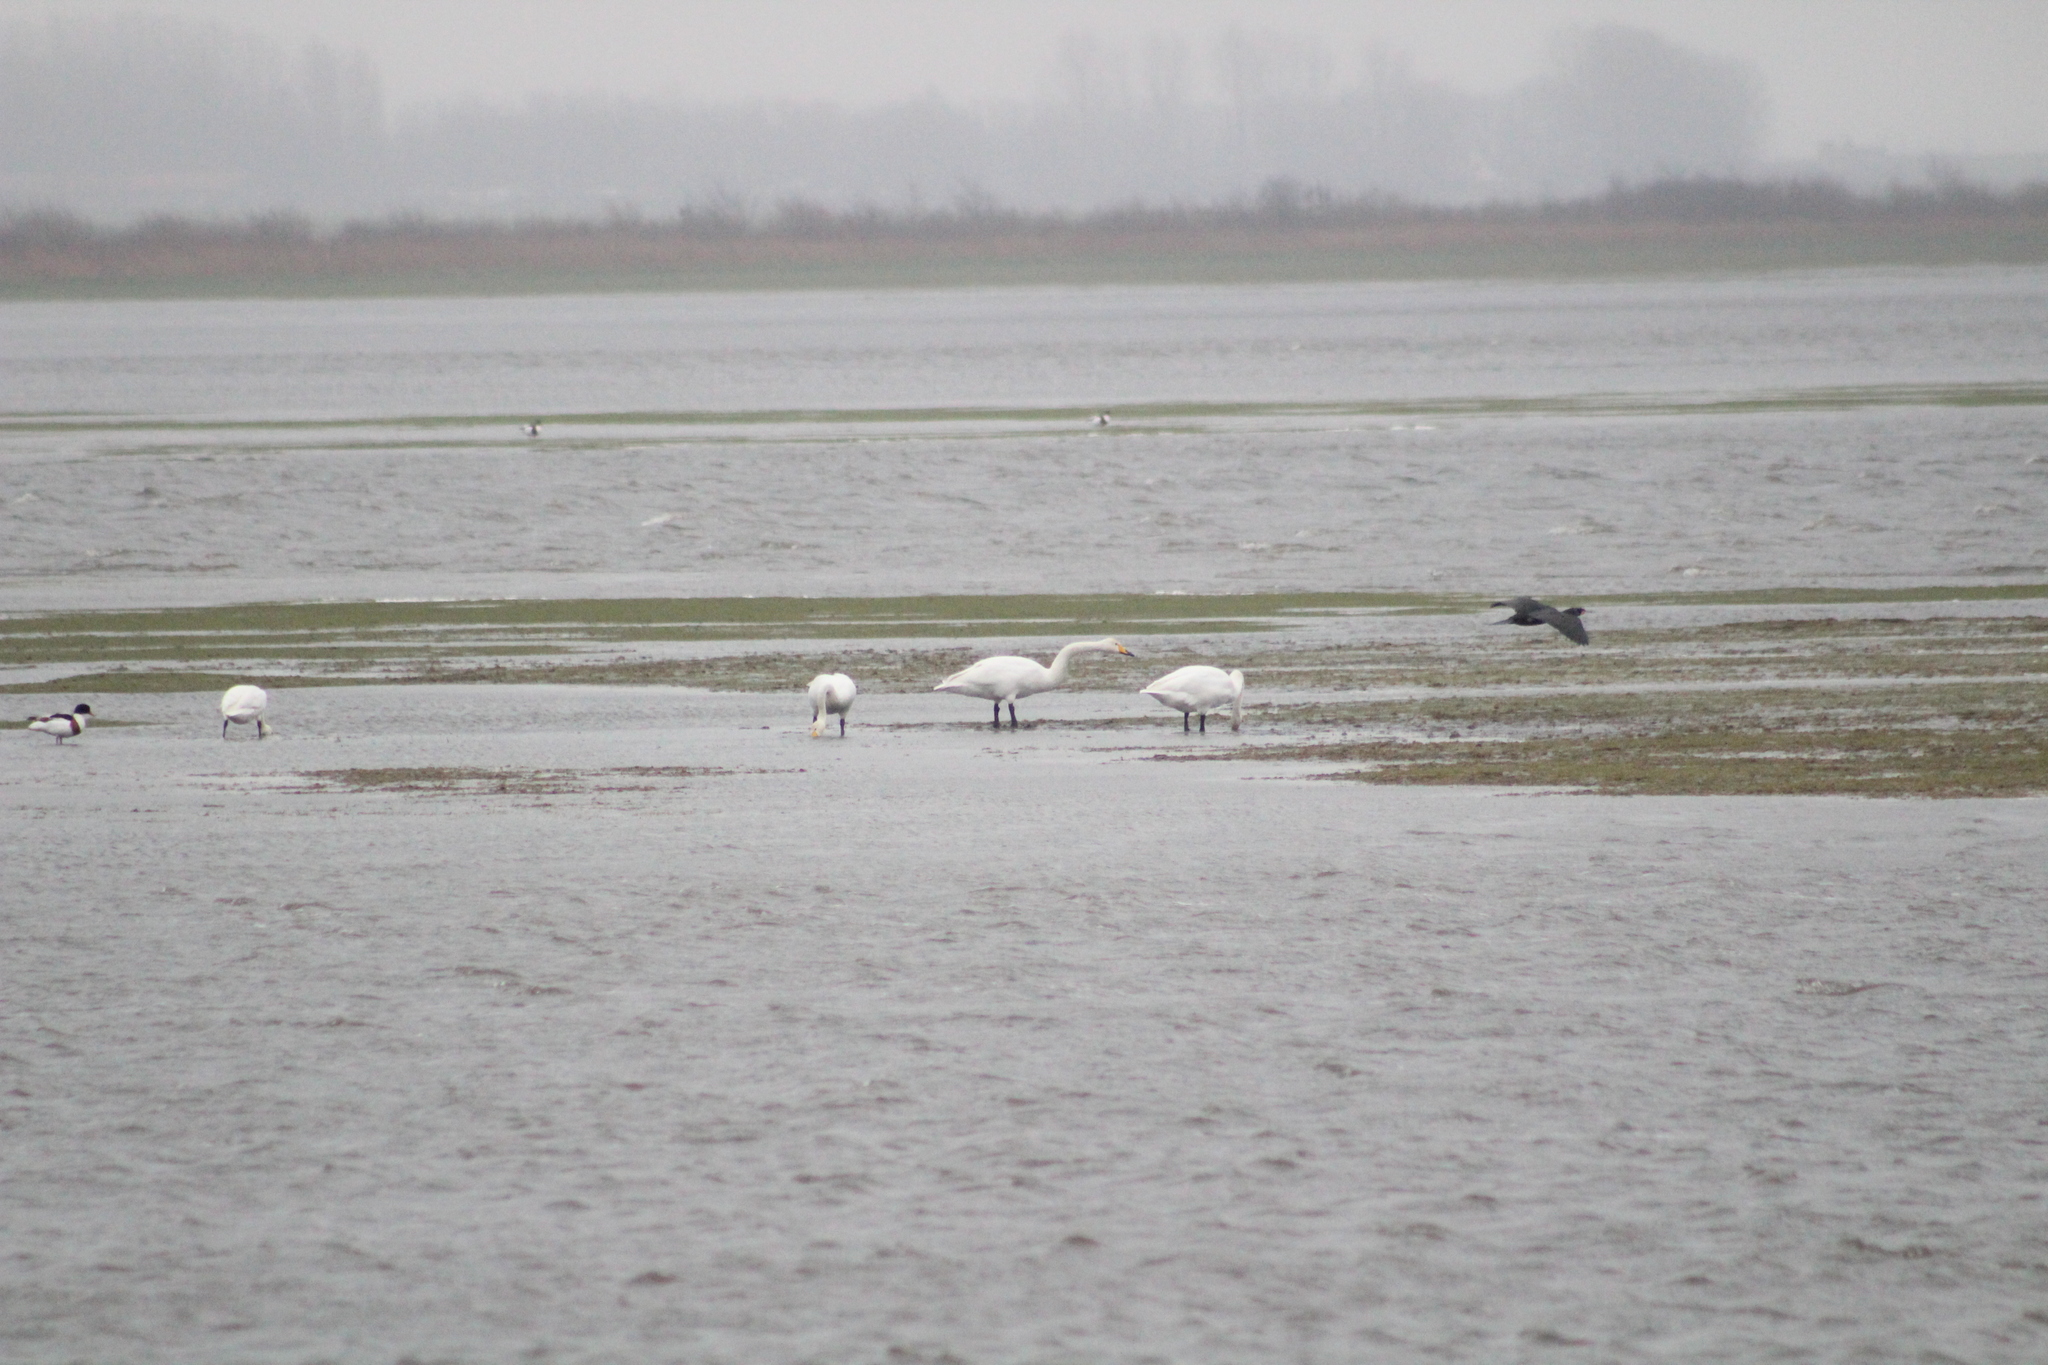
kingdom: Animalia
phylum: Chordata
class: Aves
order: Anseriformes
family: Anatidae
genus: Cygnus
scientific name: Cygnus cygnus
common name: Whooper swan
